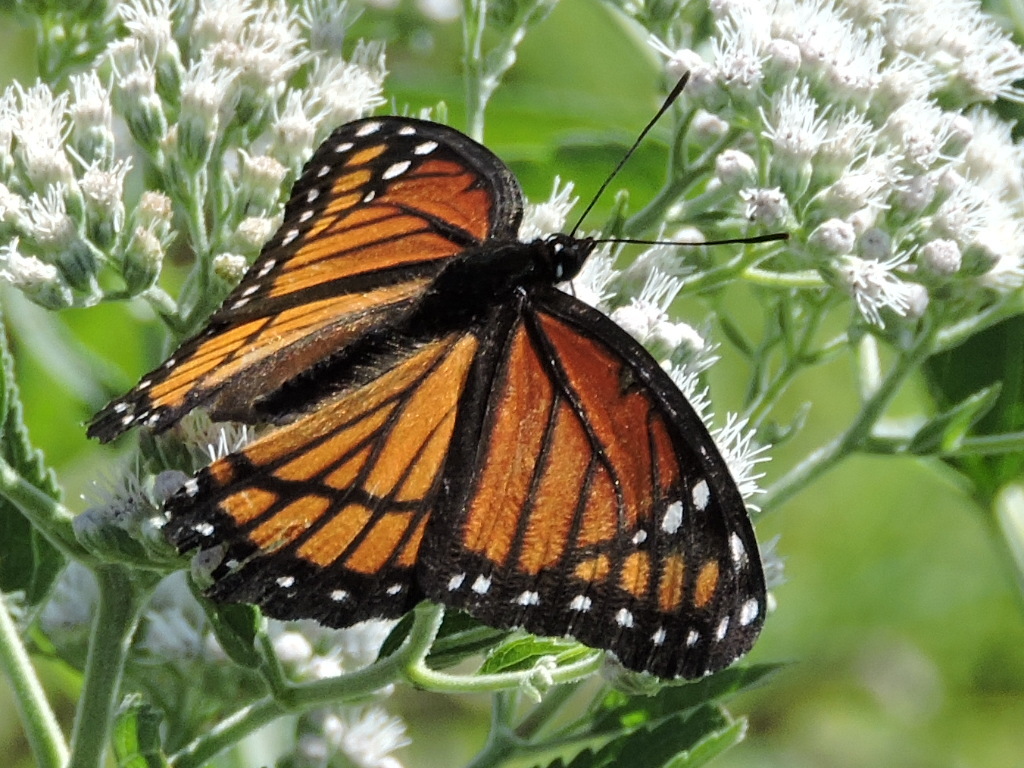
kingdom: Animalia
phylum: Arthropoda
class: Insecta
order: Lepidoptera
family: Nymphalidae
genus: Limenitis
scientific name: Limenitis archippus
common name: Viceroy
